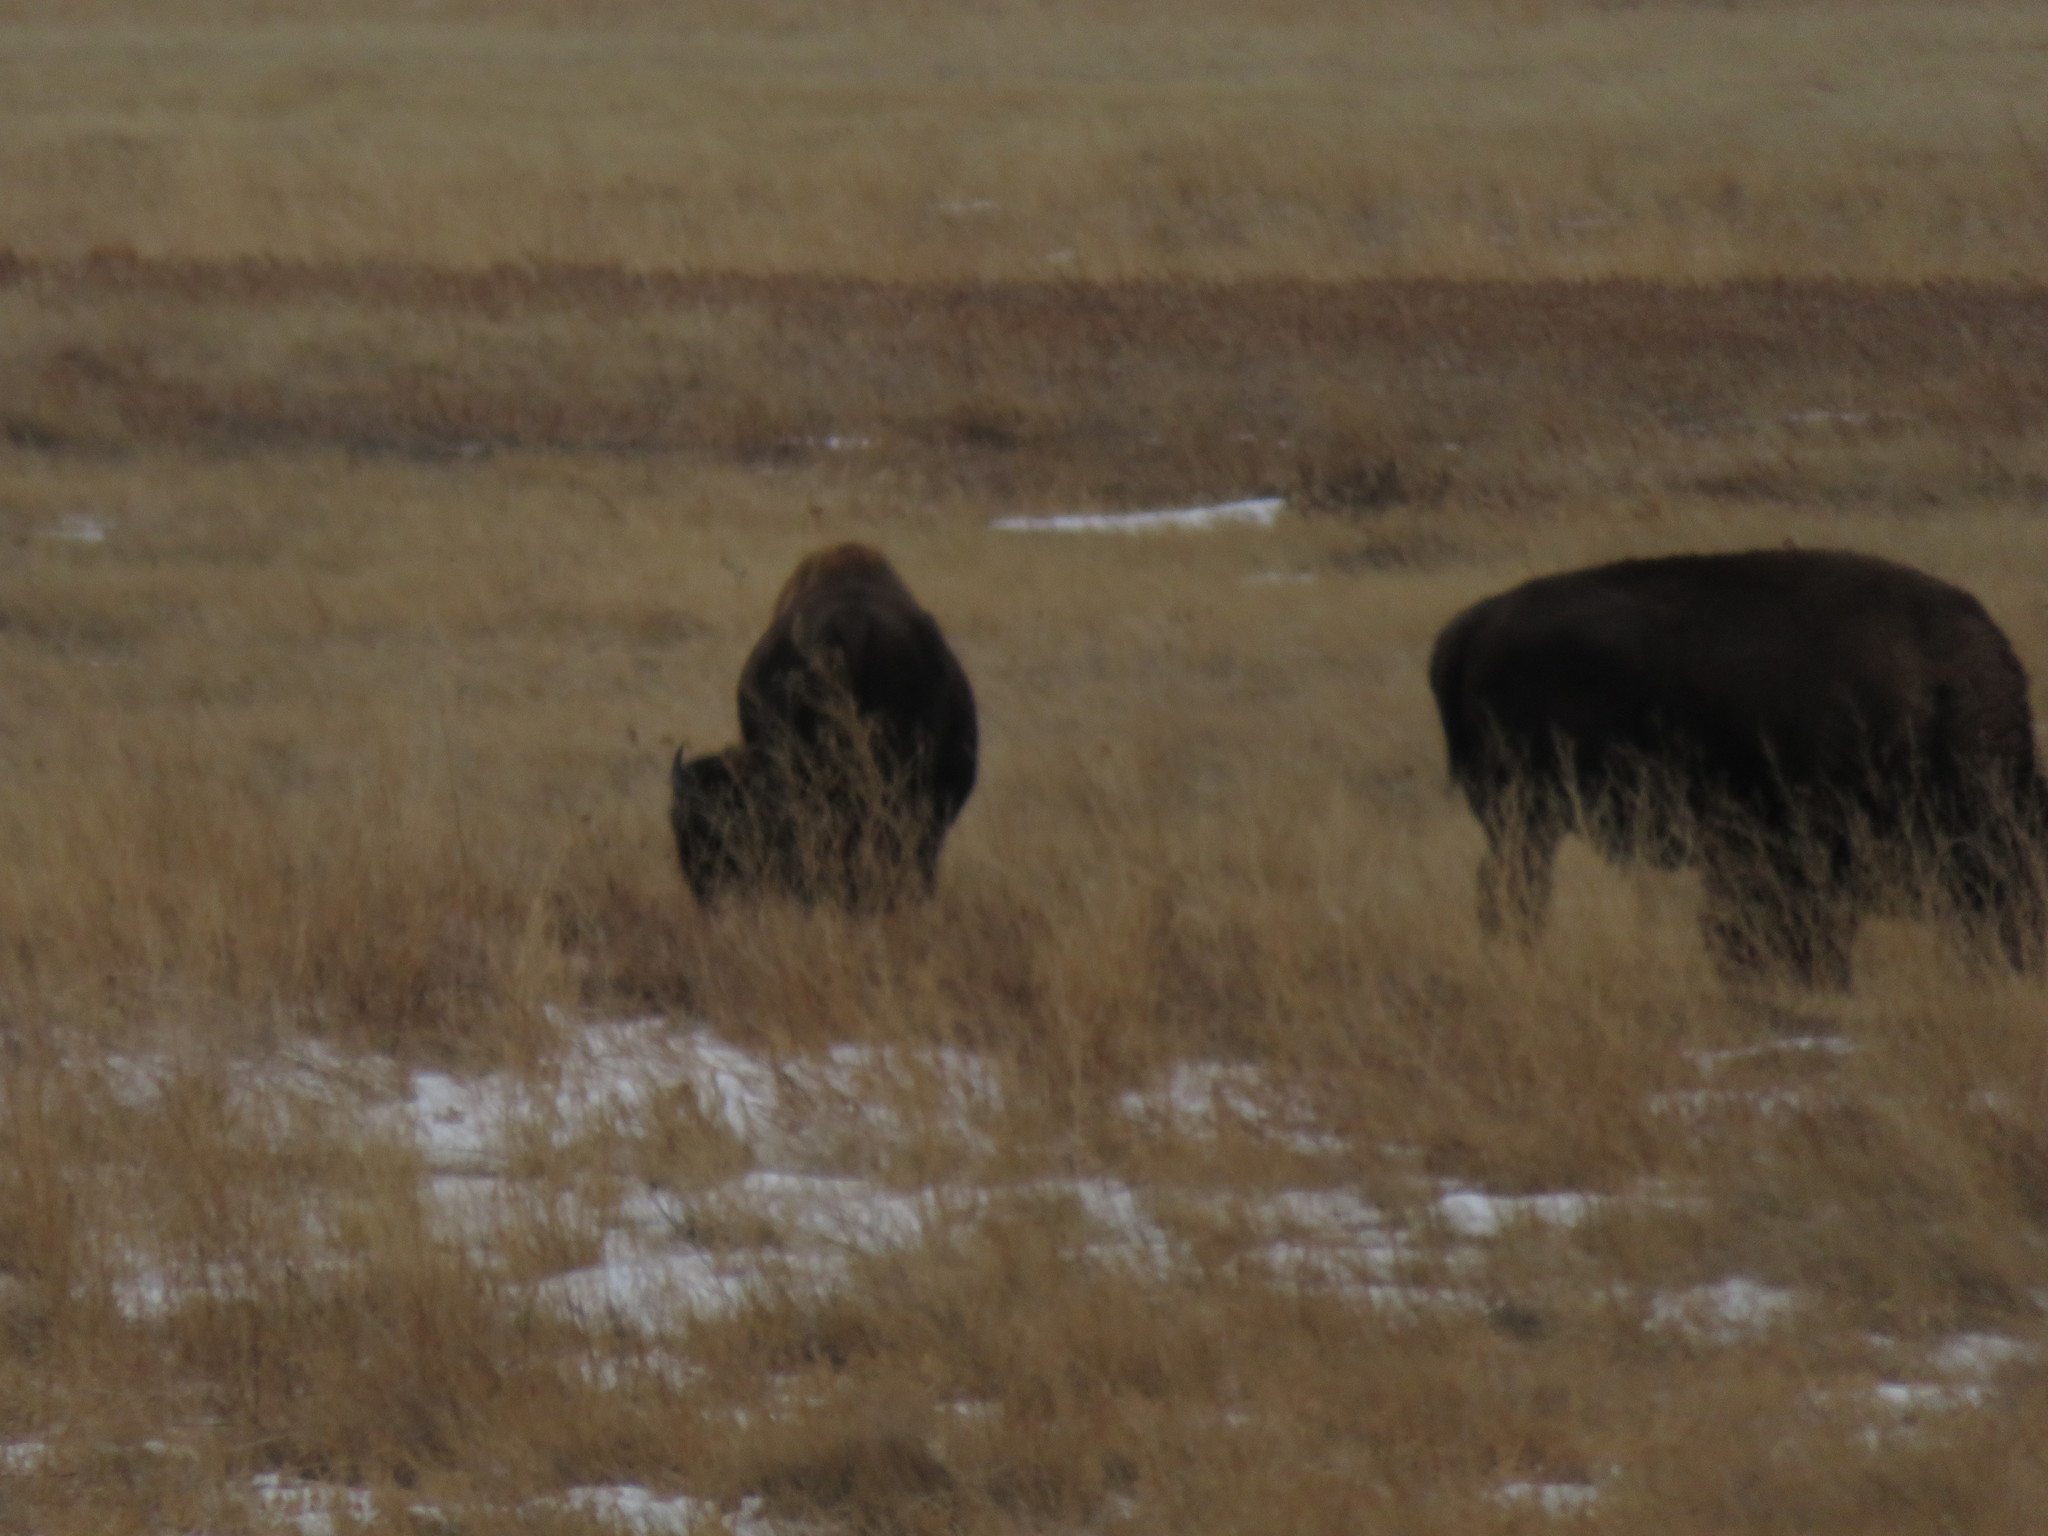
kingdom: Animalia
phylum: Chordata
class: Mammalia
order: Artiodactyla
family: Bovidae
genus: Bison
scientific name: Bison bison
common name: American bison
